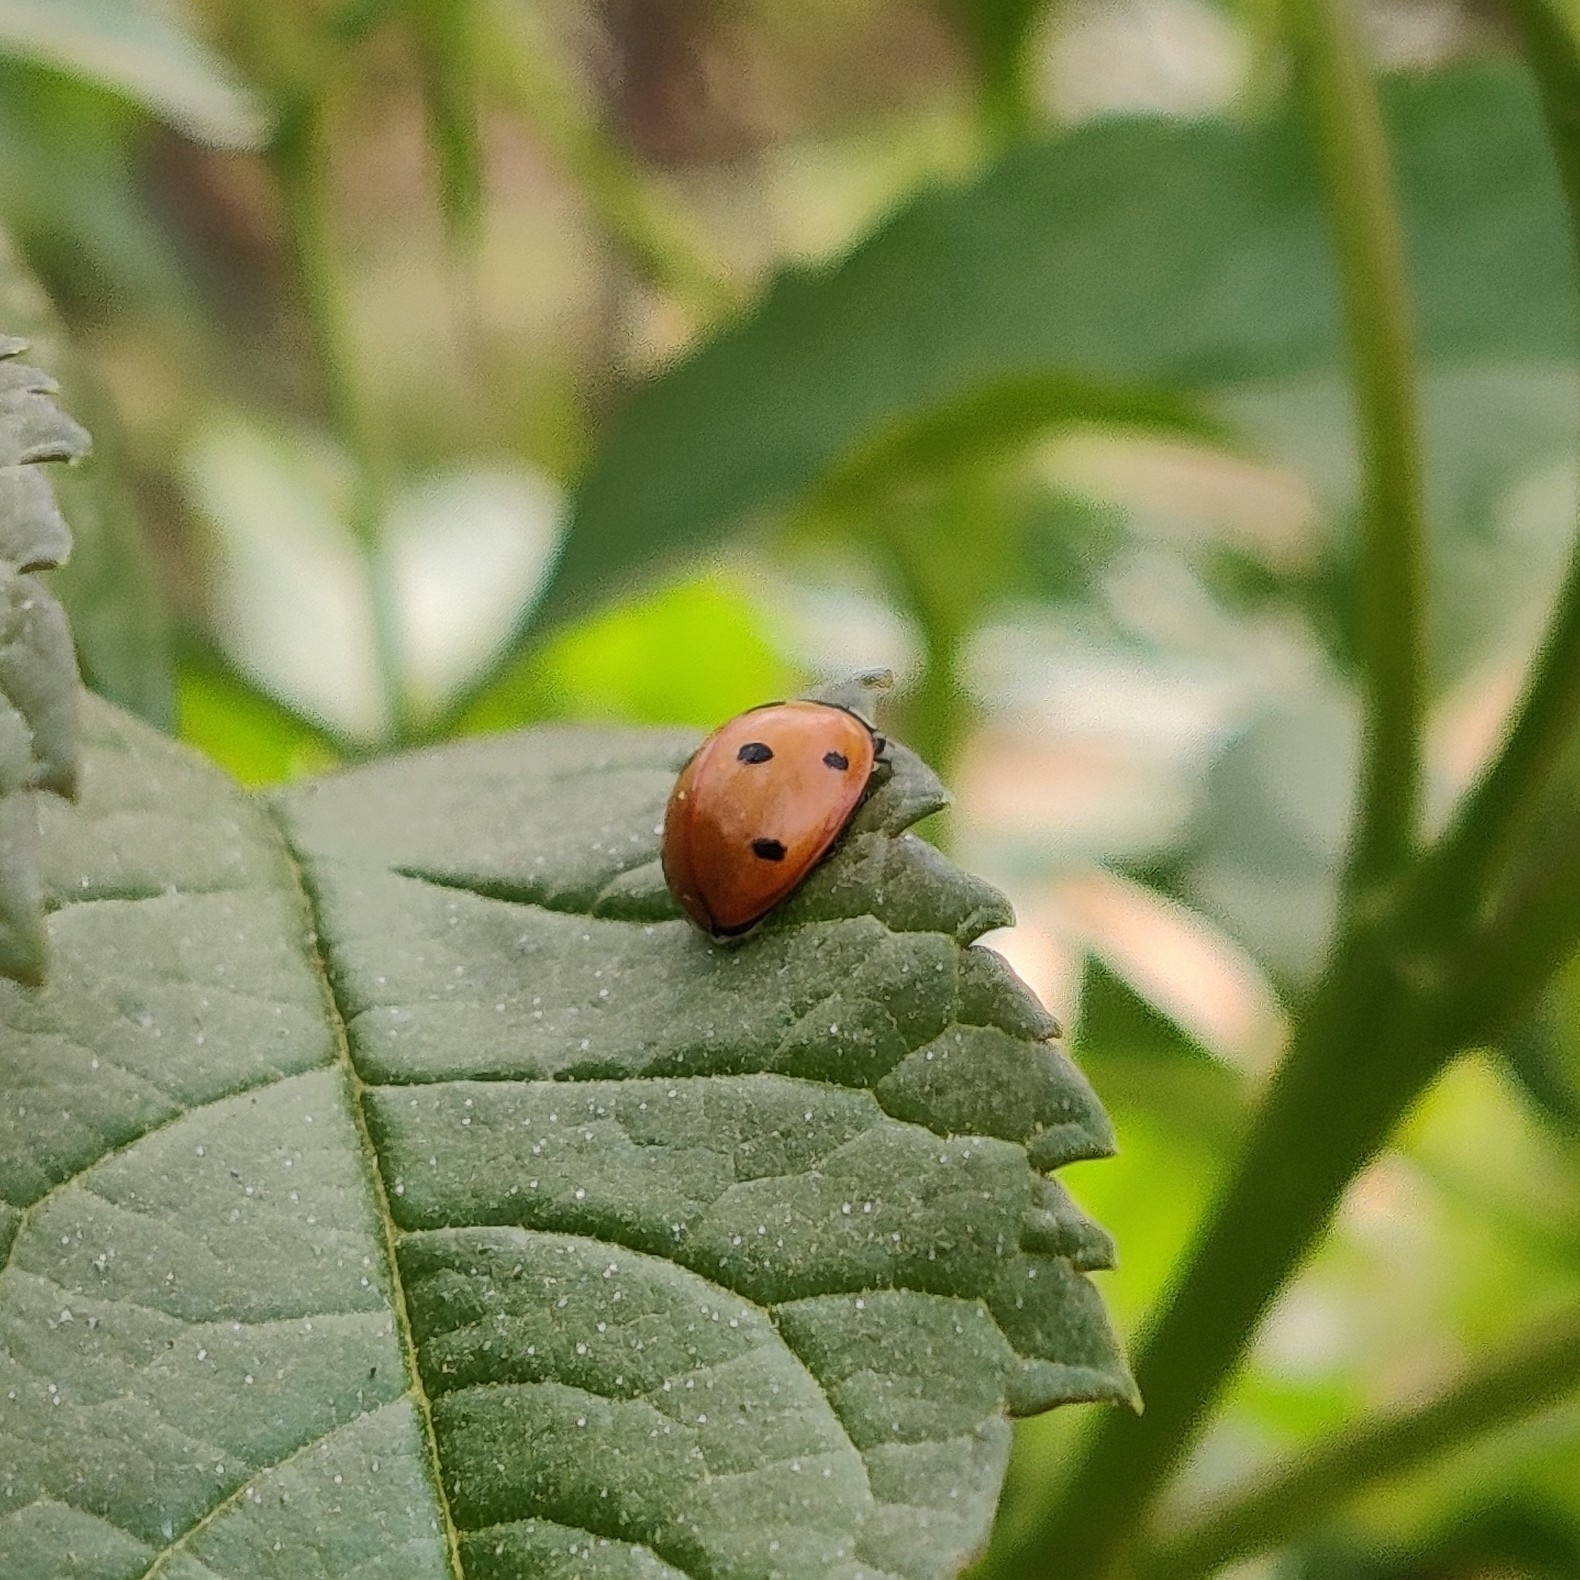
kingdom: Animalia
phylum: Arthropoda
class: Insecta
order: Coleoptera
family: Coccinellidae
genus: Coccinella
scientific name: Coccinella septempunctata
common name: Sevenspotted lady beetle
